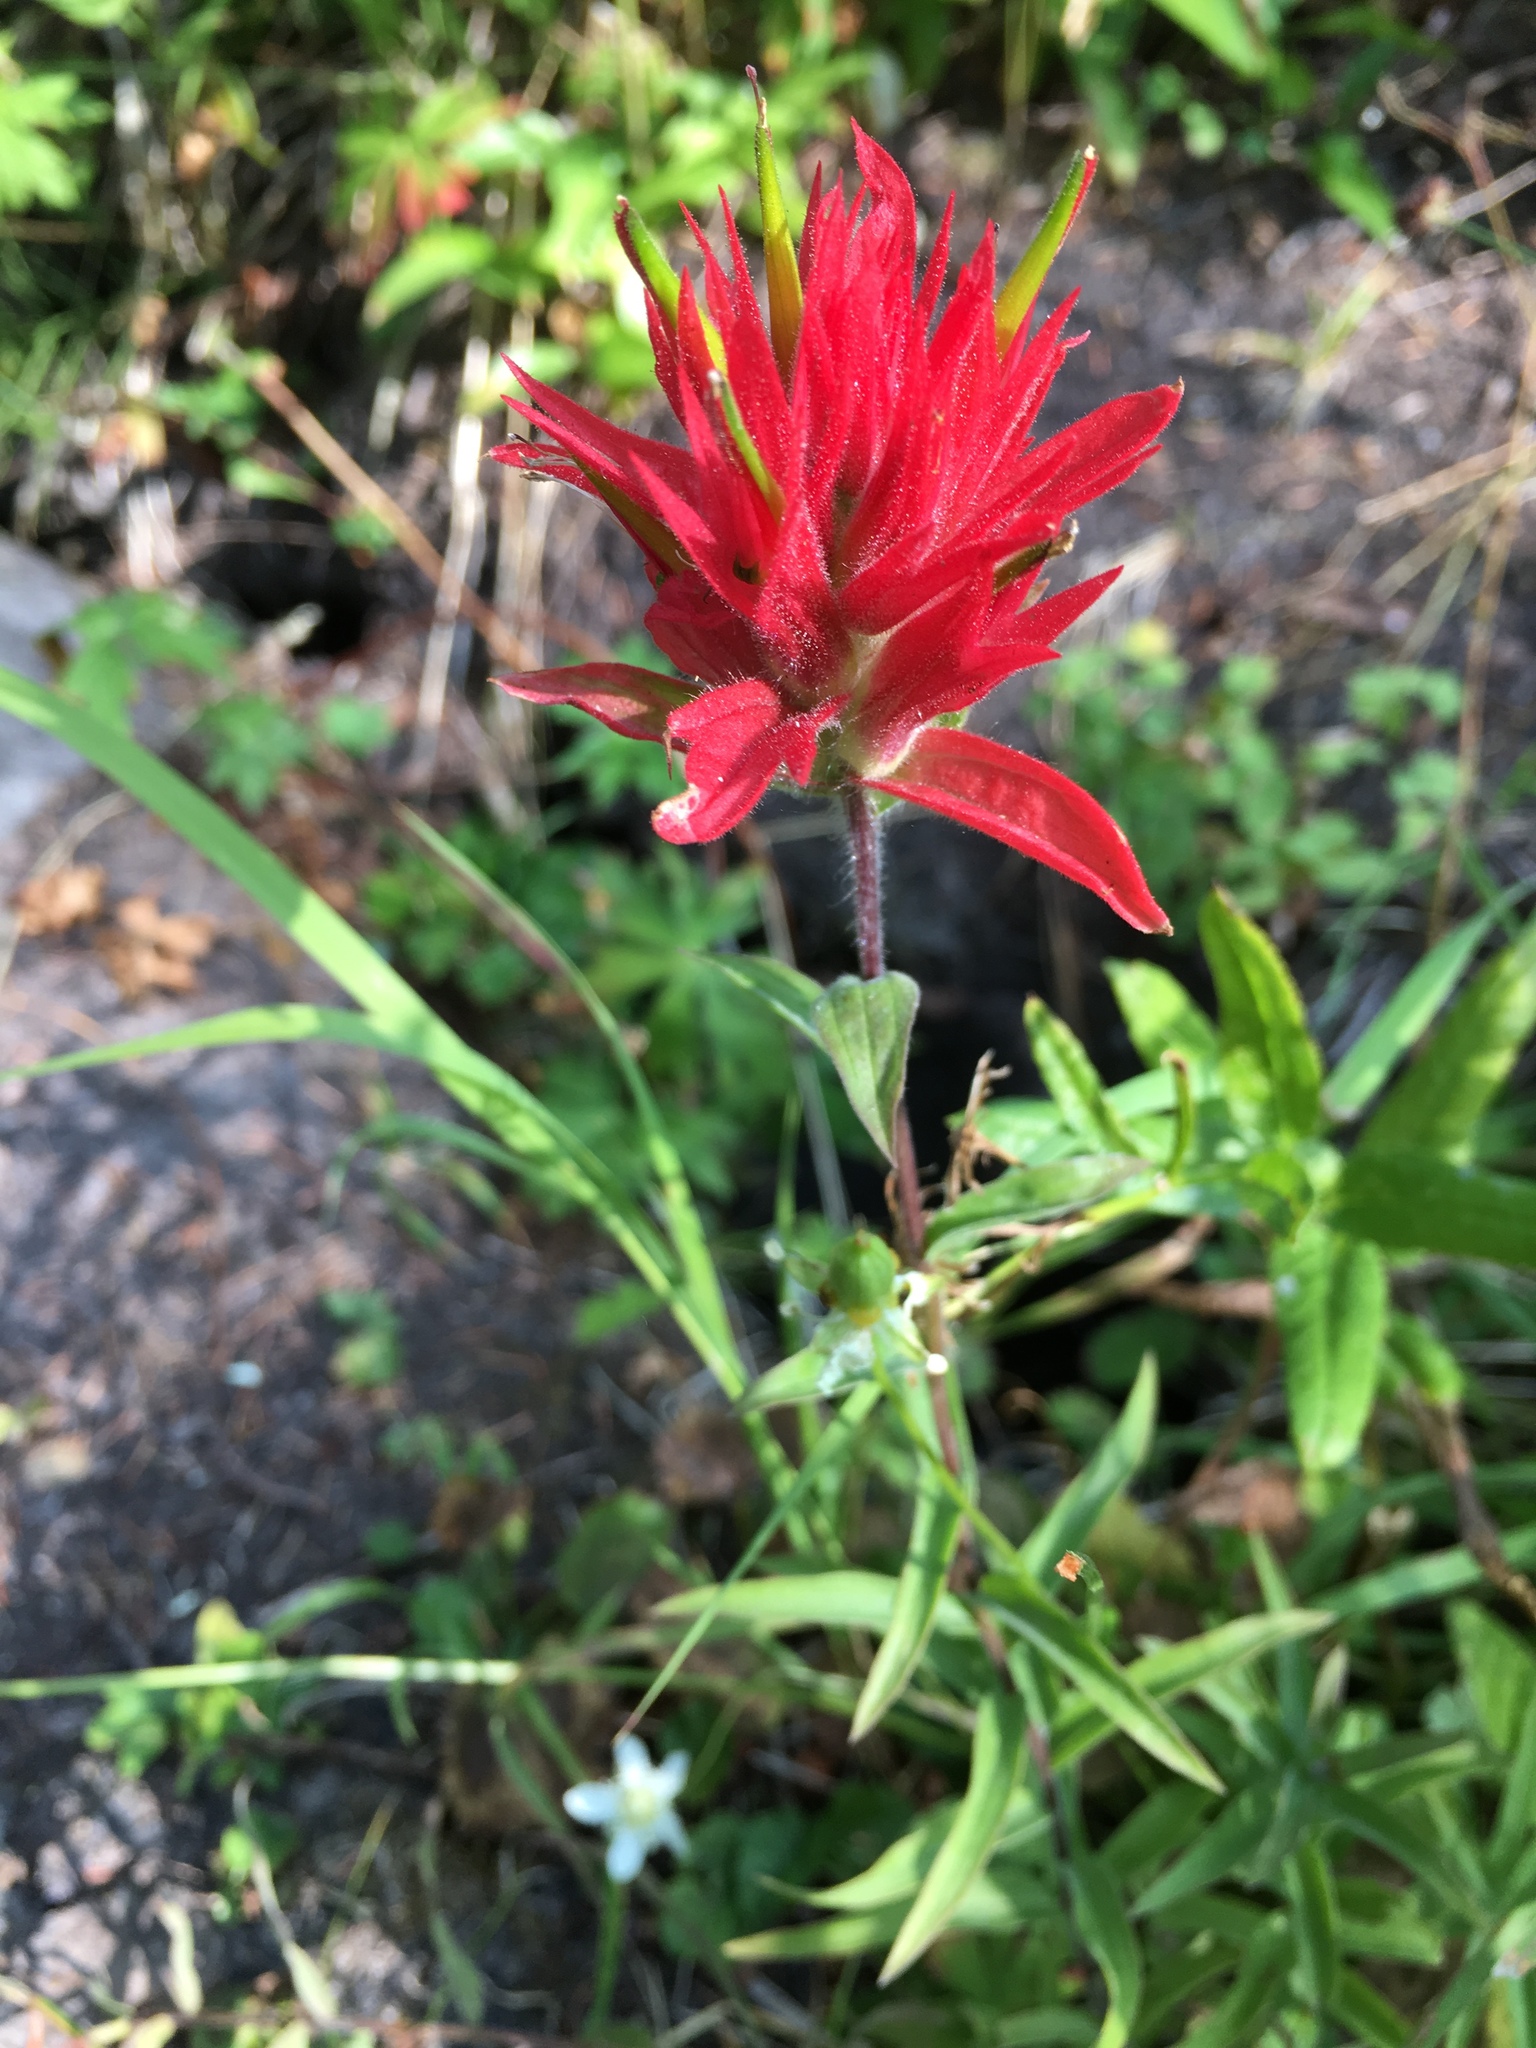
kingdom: Plantae
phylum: Tracheophyta
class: Magnoliopsida
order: Lamiales
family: Orobanchaceae
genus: Castilleja
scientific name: Castilleja miniata
